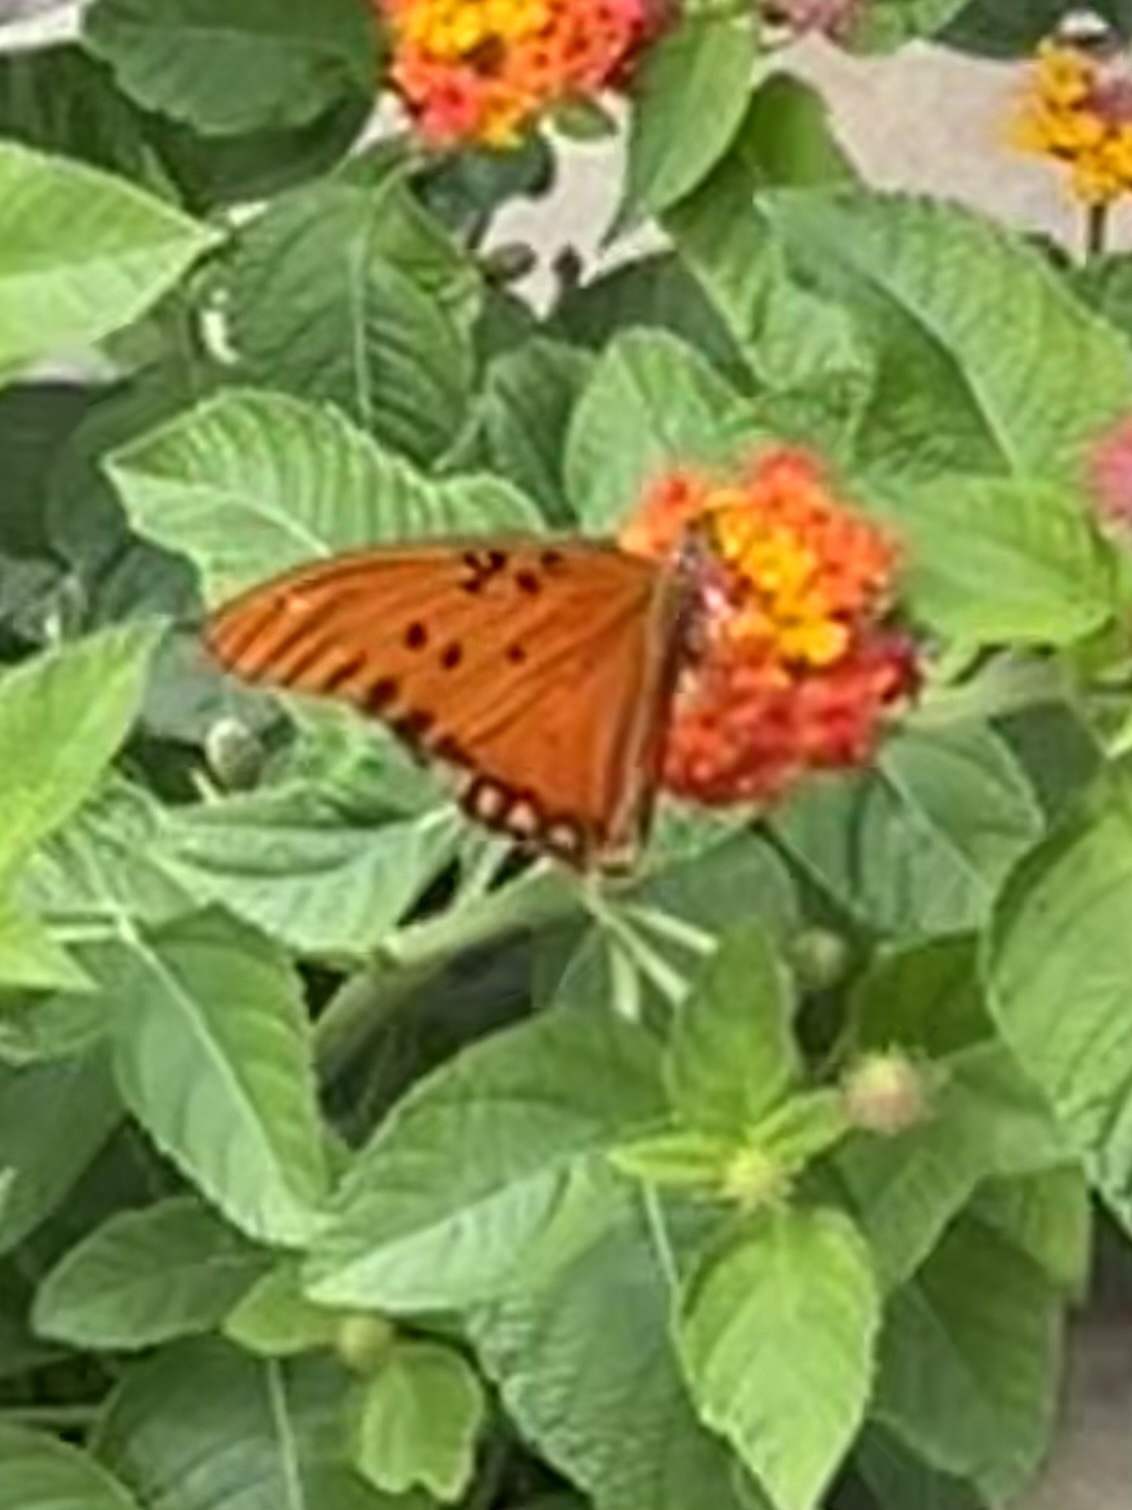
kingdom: Animalia
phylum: Arthropoda
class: Insecta
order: Lepidoptera
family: Nymphalidae
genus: Dione
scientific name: Dione vanillae
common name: Gulf fritillary
